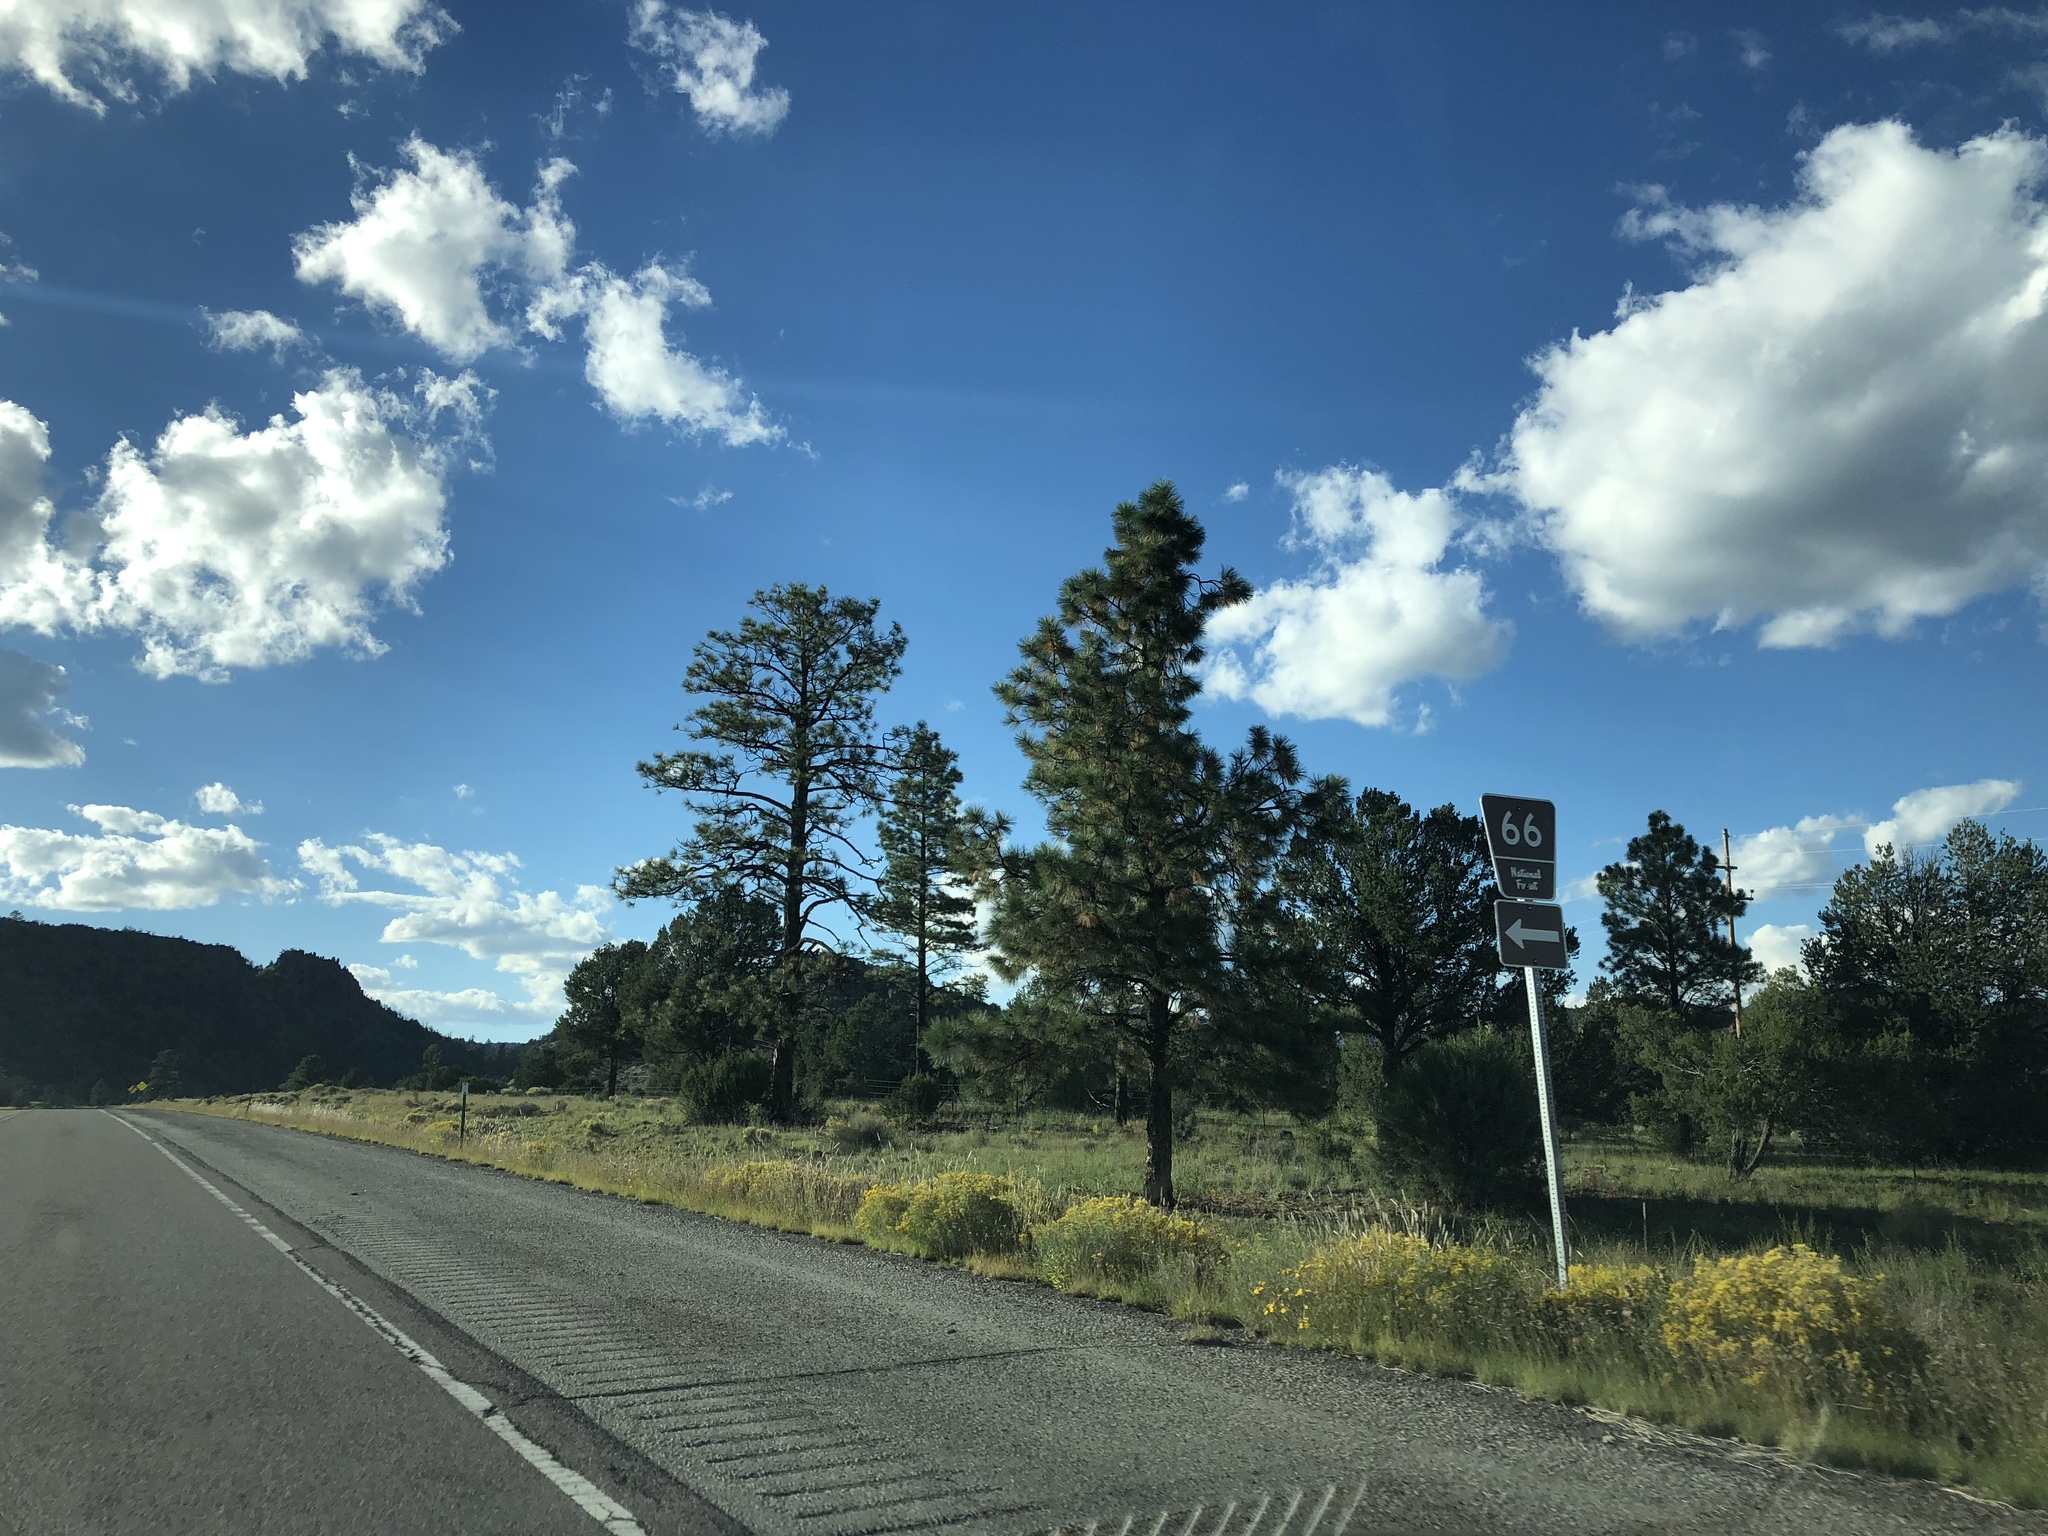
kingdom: Plantae
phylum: Tracheophyta
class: Pinopsida
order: Pinales
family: Pinaceae
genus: Pinus
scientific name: Pinus ponderosa
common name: Western yellow-pine
